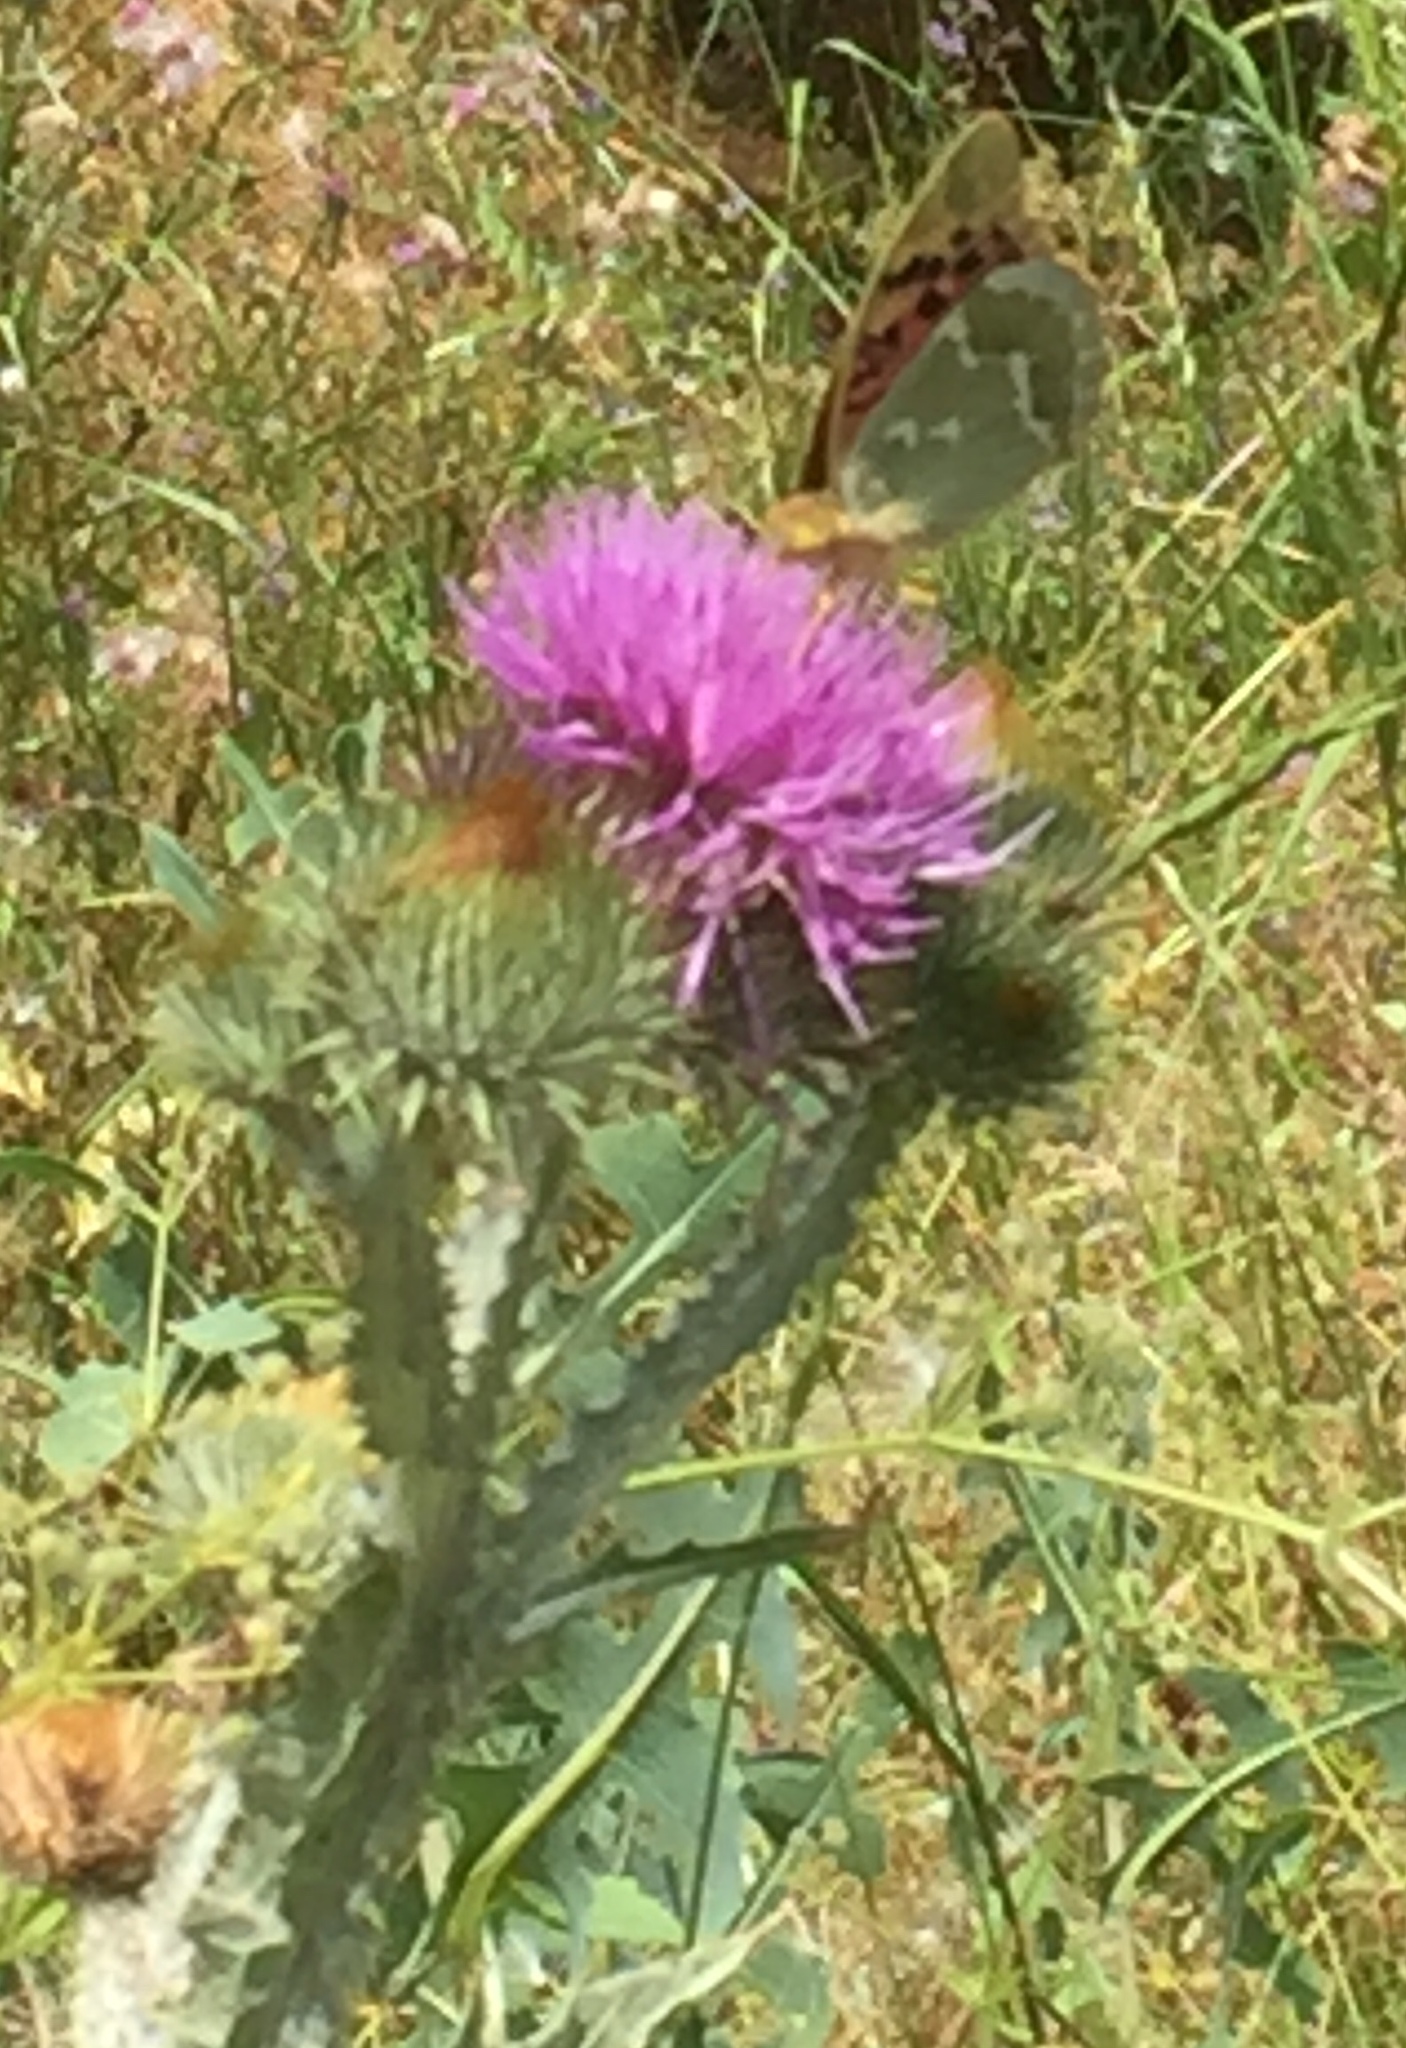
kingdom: Animalia
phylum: Arthropoda
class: Insecta
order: Lepidoptera
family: Nymphalidae
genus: Damora
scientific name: Damora pandora
